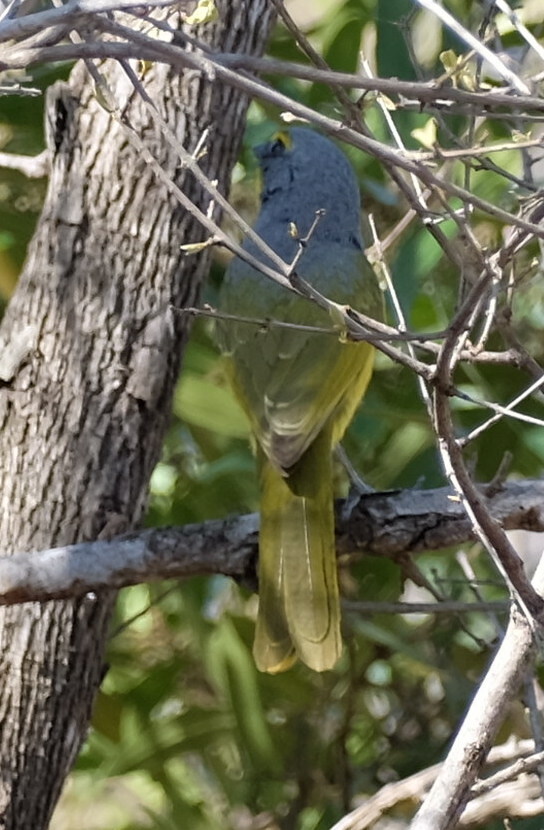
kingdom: Animalia
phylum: Chordata
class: Aves
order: Passeriformes
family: Malaconotidae
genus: Chlorophoneus
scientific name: Chlorophoneus sulfureopectus
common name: Orange-breasted bushshrike
